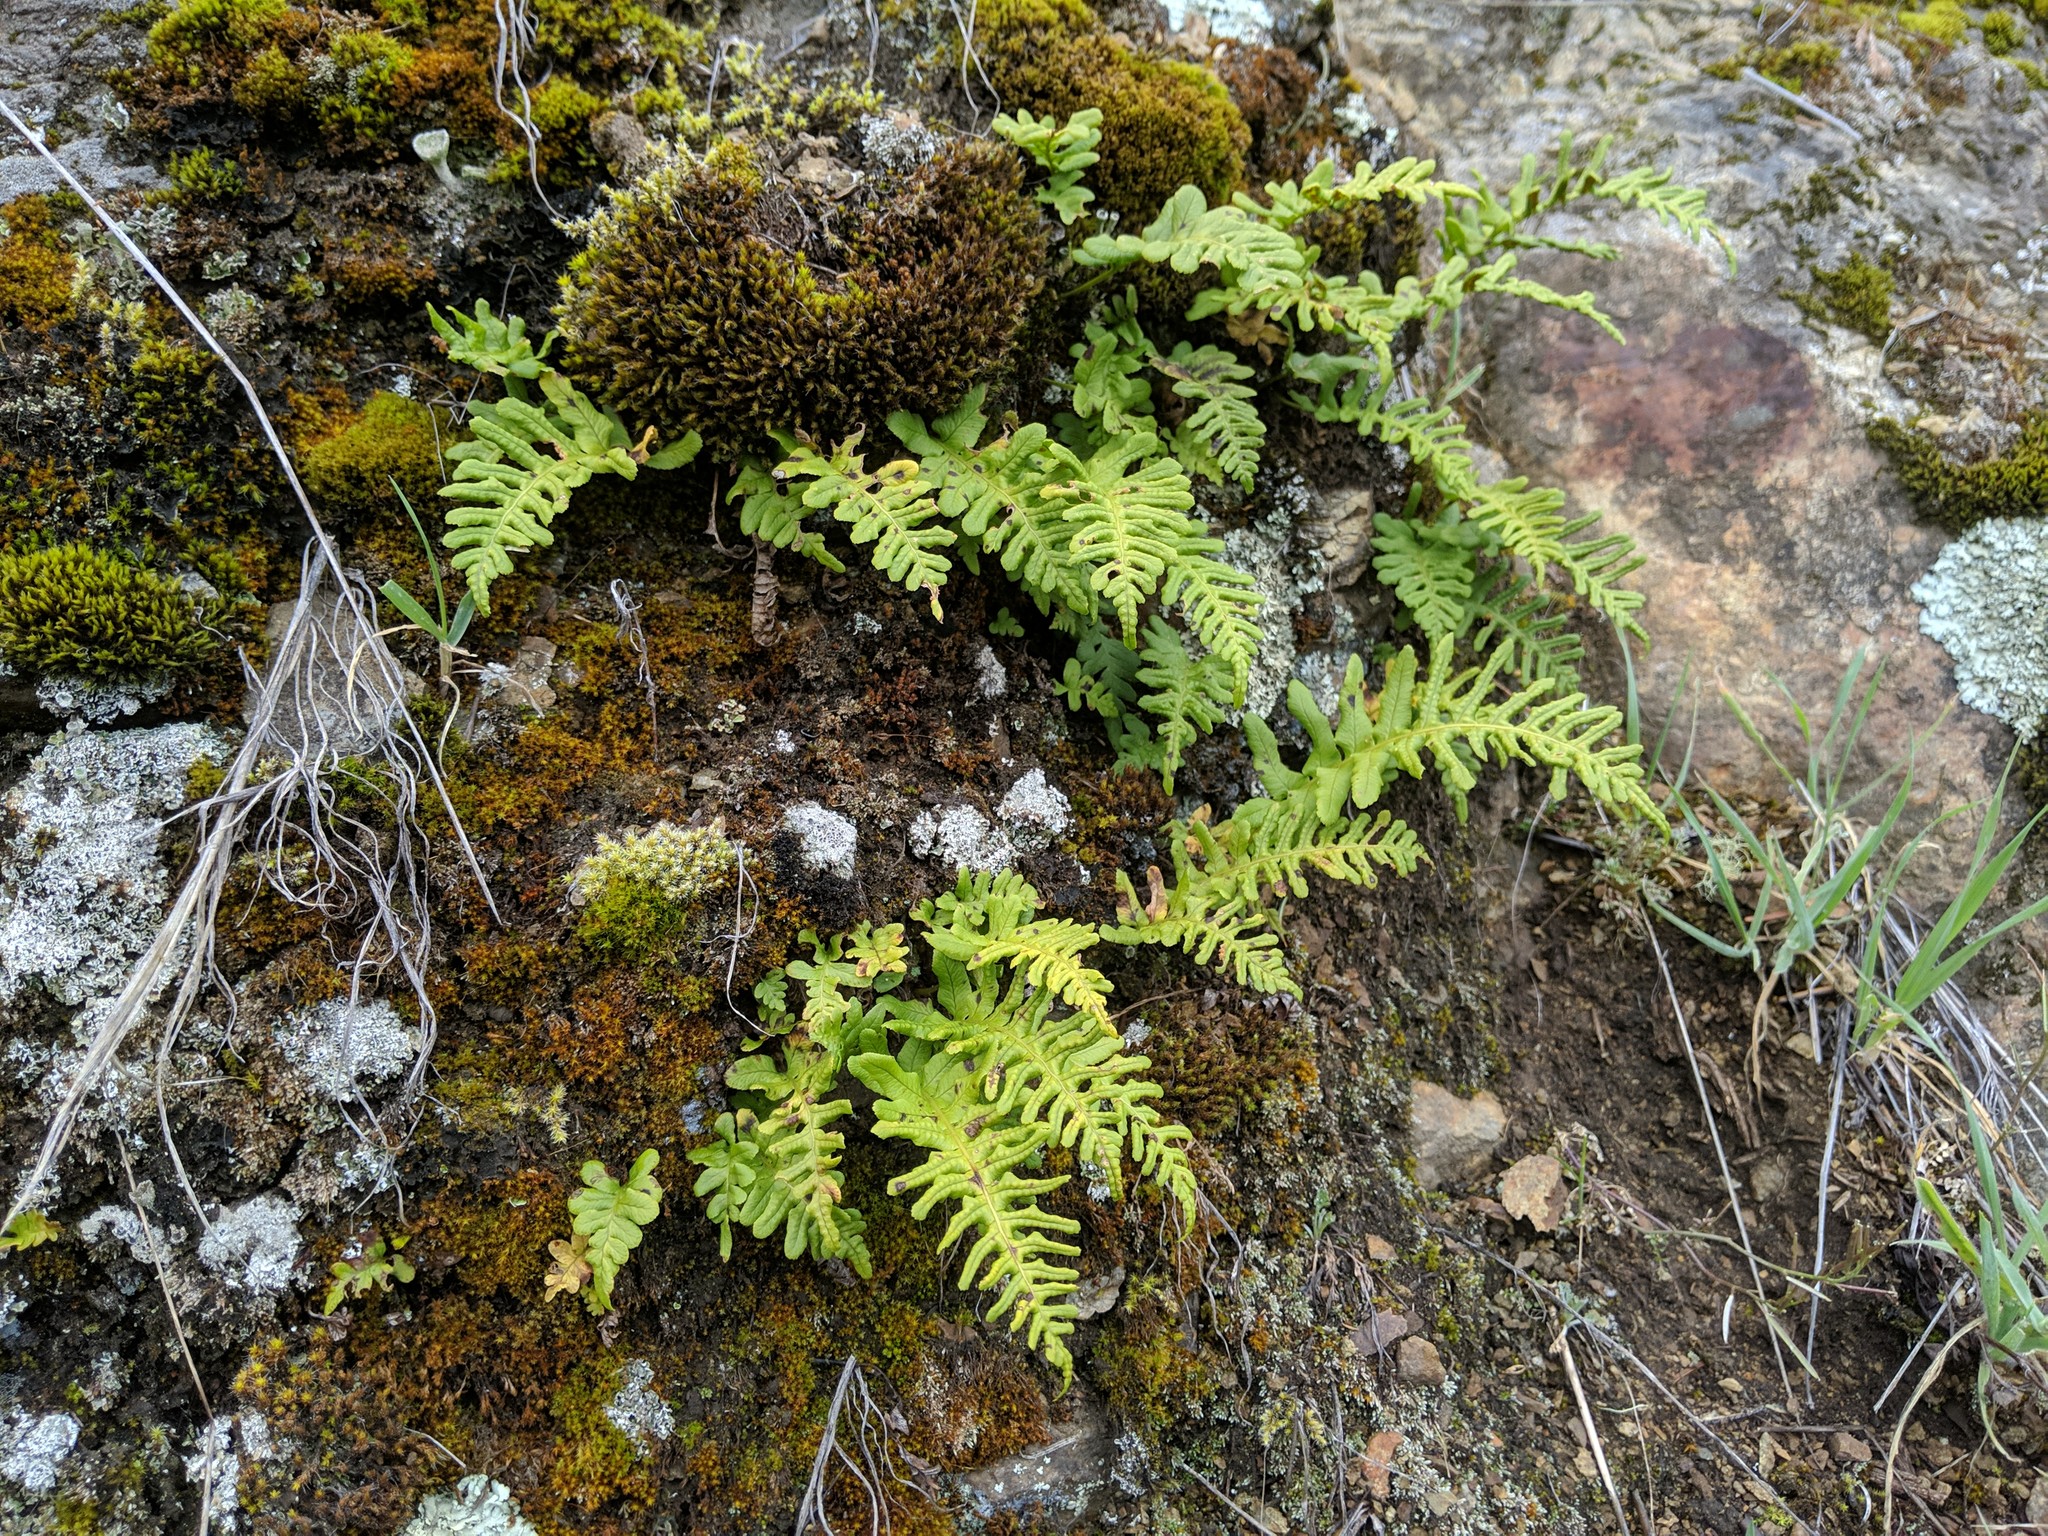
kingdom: Plantae
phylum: Tracheophyta
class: Polypodiopsida
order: Polypodiales
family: Polypodiaceae
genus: Polypodium
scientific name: Polypodium glycyrrhiza
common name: Licorice fern
